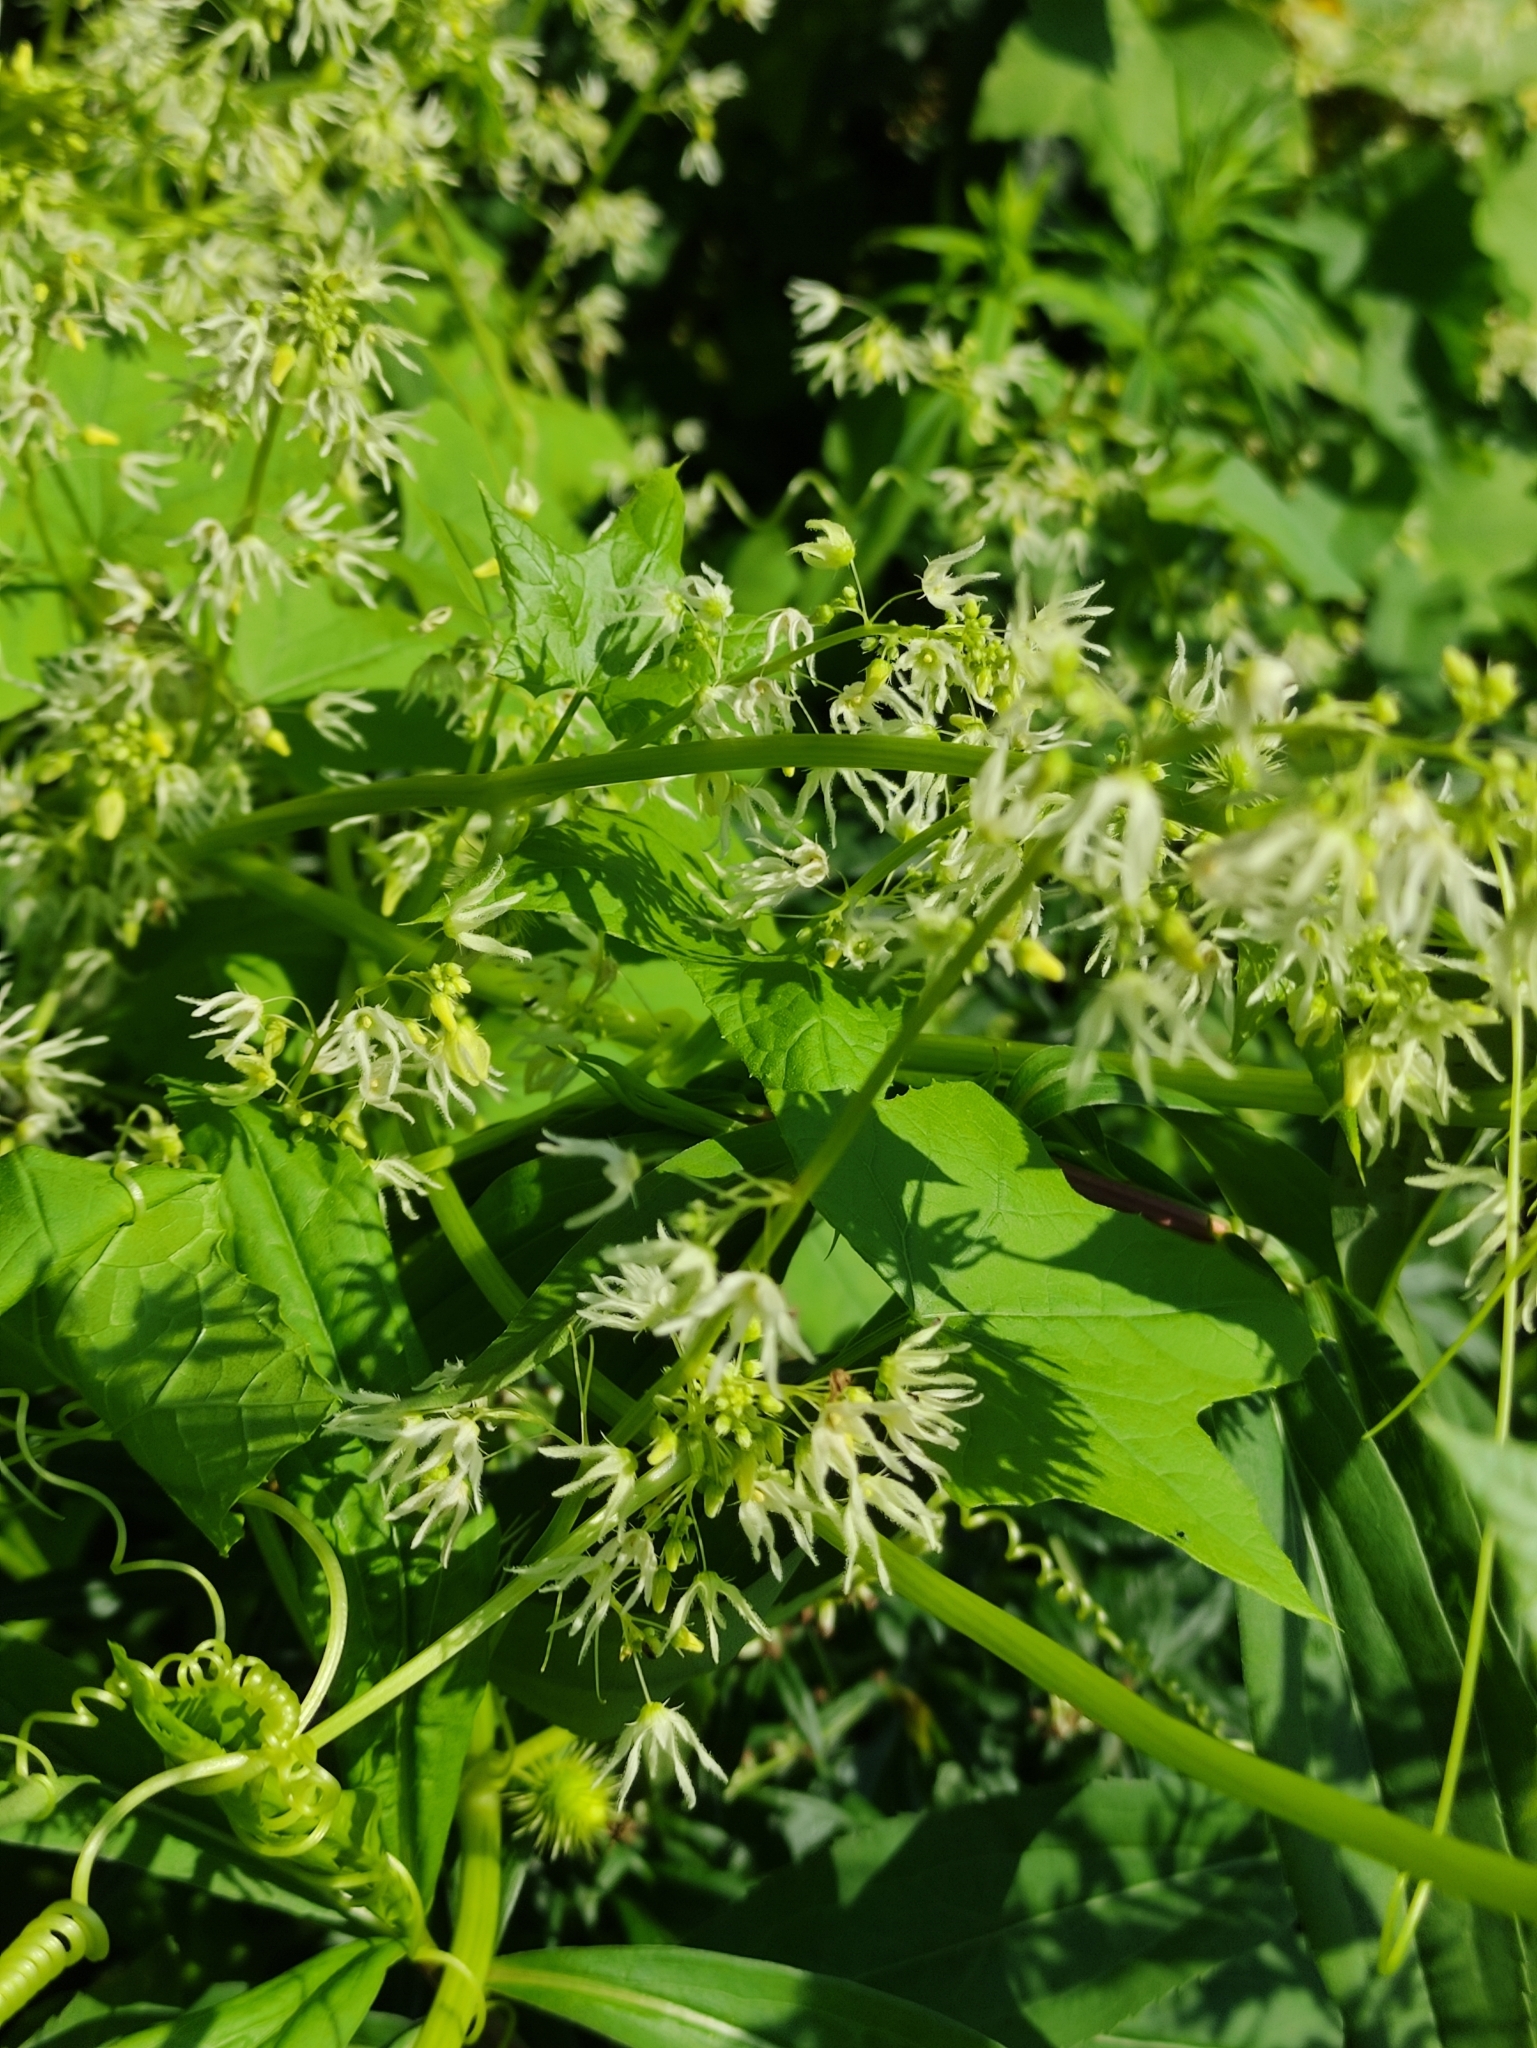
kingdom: Plantae
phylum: Tracheophyta
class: Magnoliopsida
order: Cucurbitales
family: Cucurbitaceae
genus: Echinocystis
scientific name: Echinocystis lobata
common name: Wild cucumber
